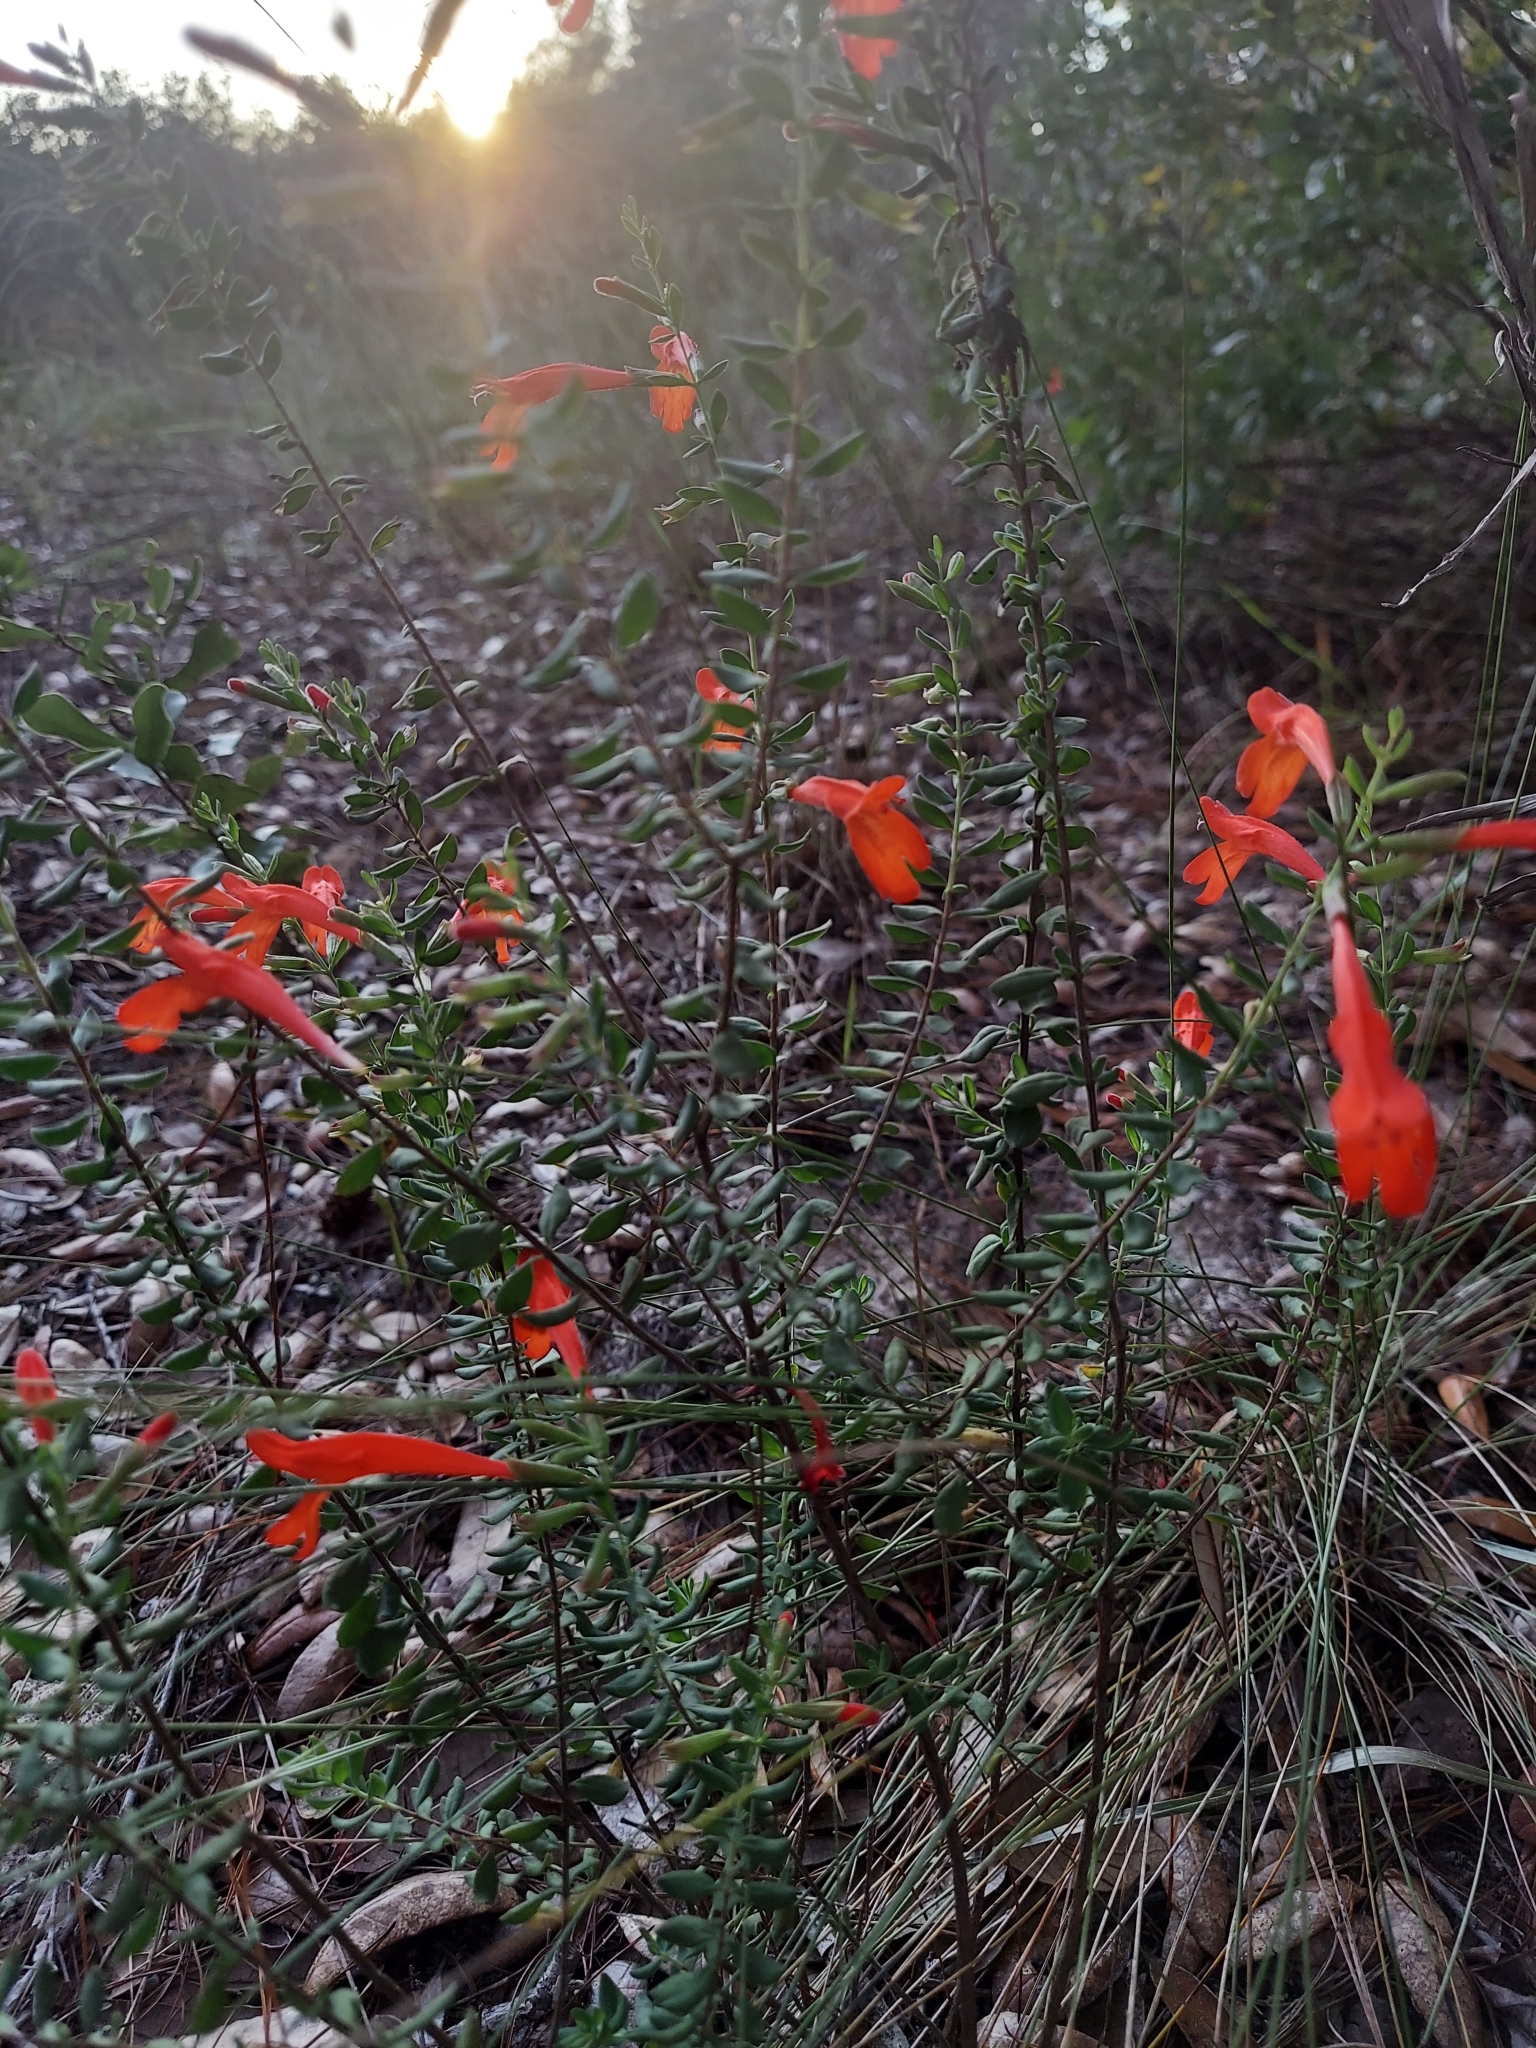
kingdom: Plantae
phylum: Tracheophyta
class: Magnoliopsida
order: Lamiales
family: Lamiaceae
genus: Clinopodium
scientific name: Clinopodium coccineum
